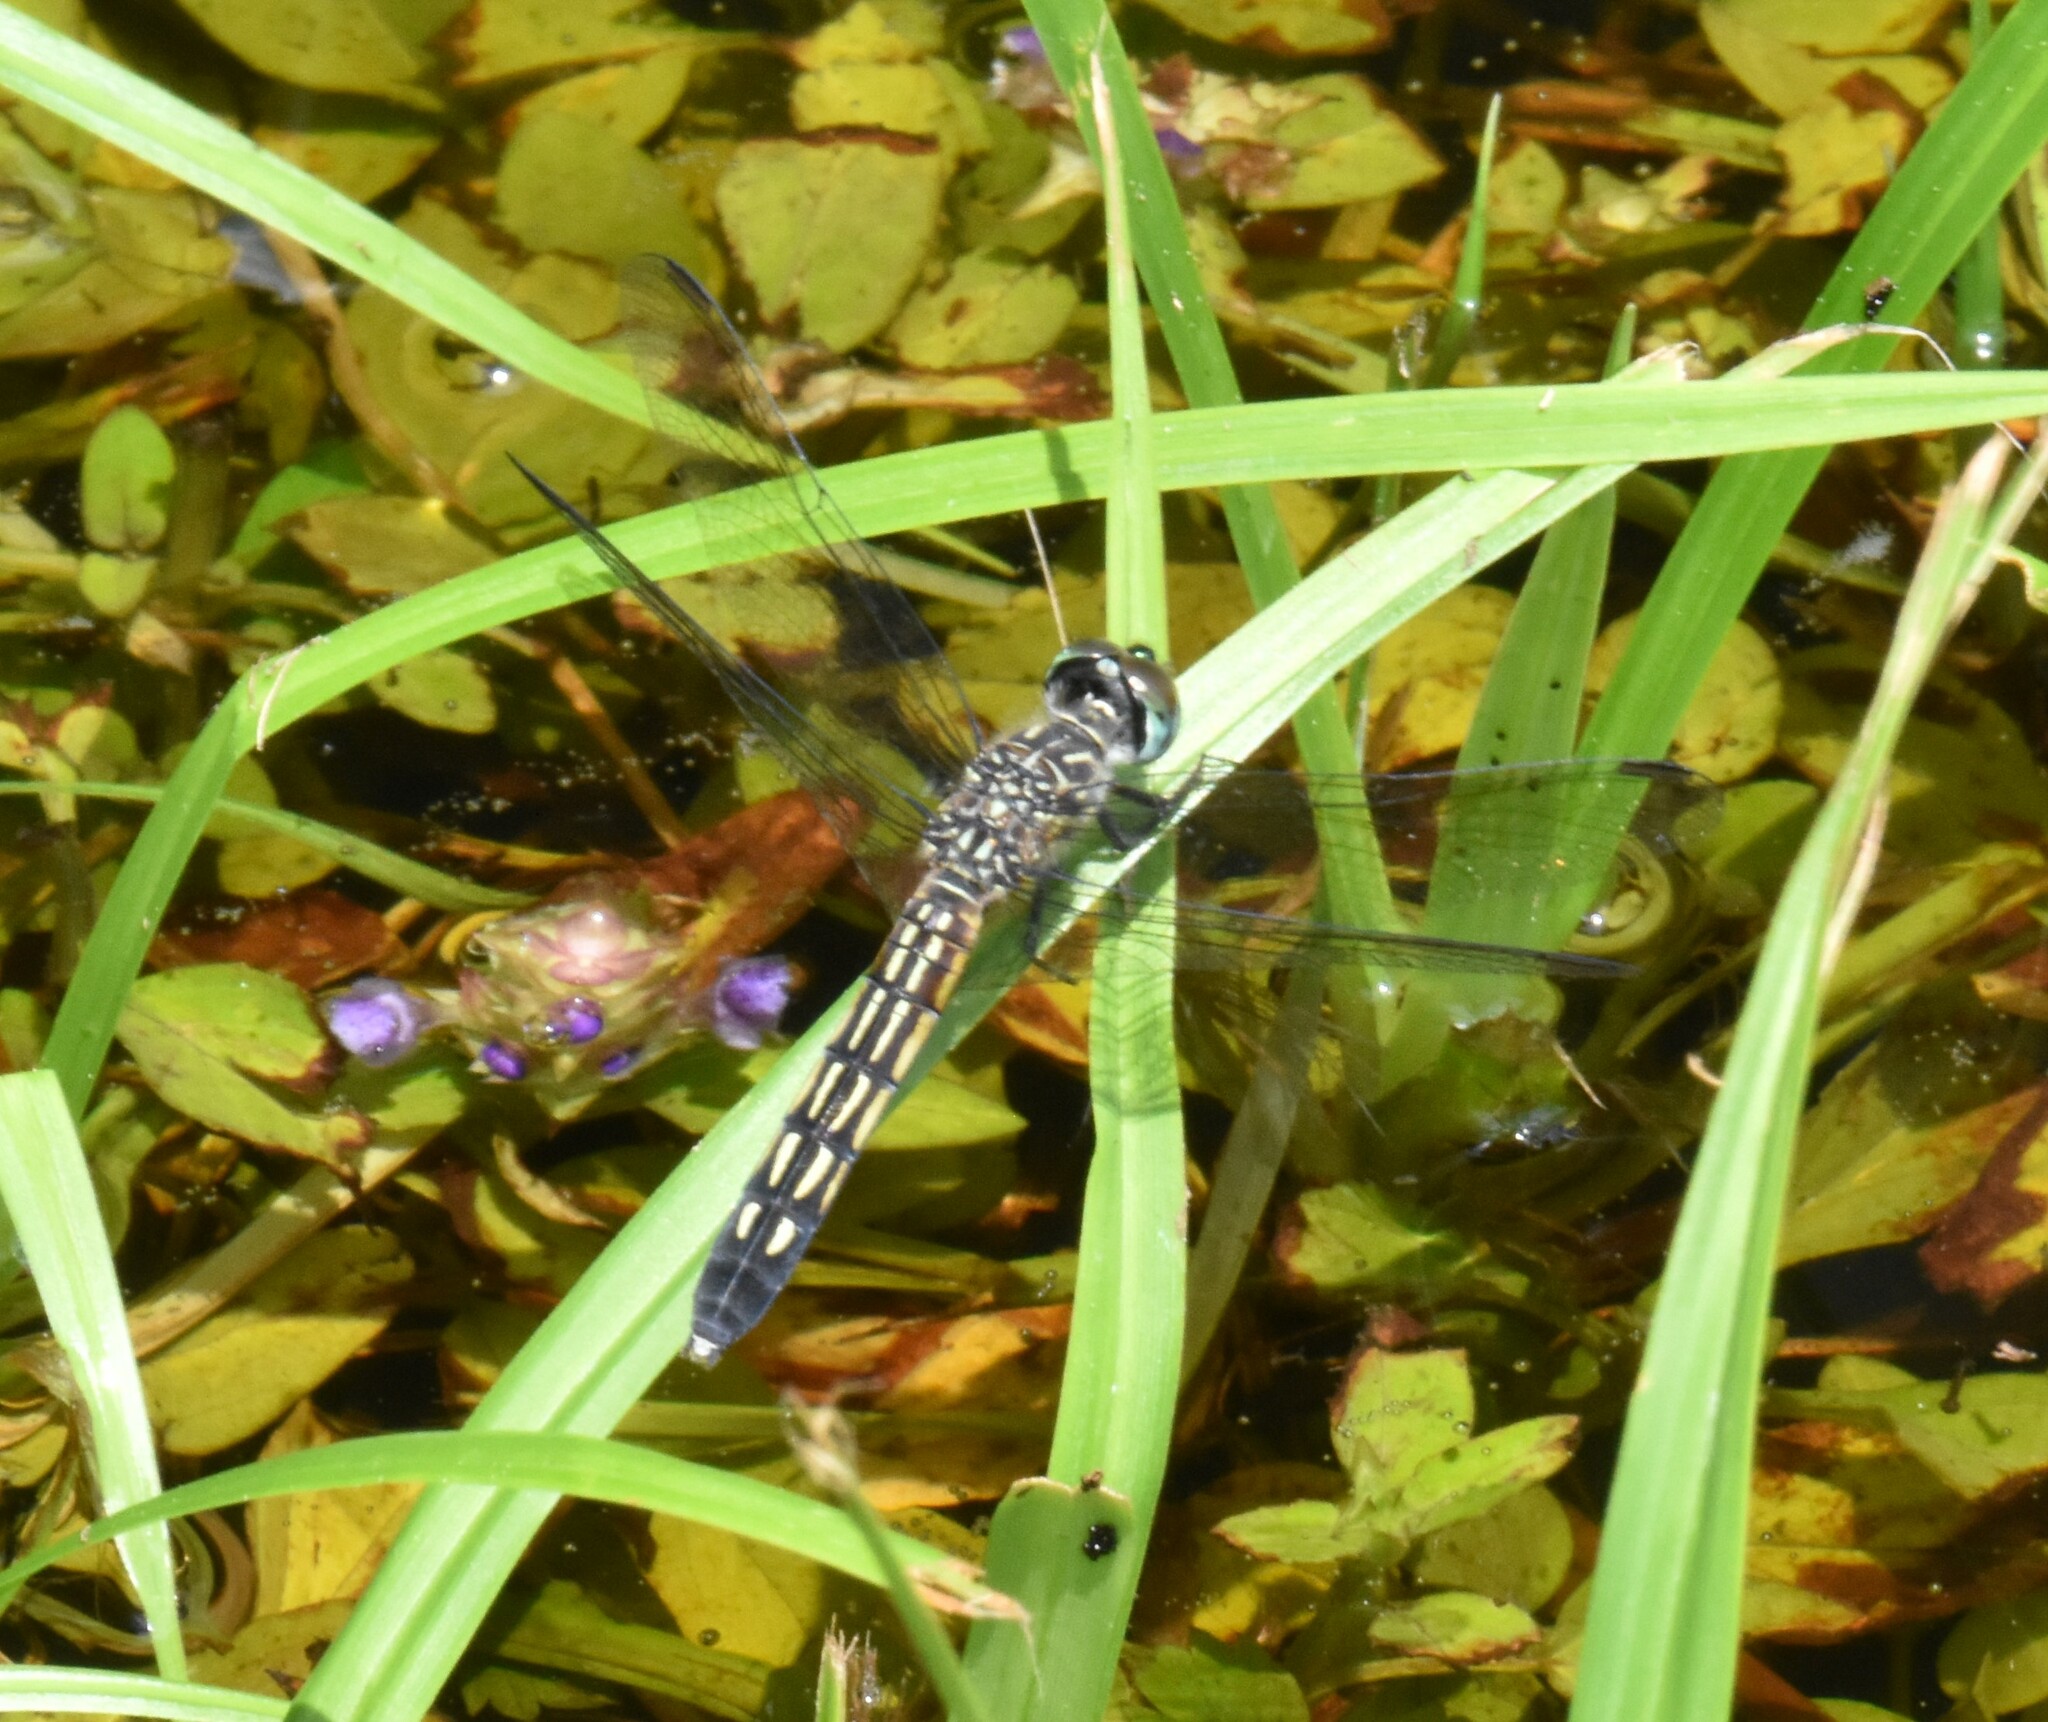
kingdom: Animalia
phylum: Arthropoda
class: Insecta
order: Odonata
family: Libellulidae
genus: Pachydiplax
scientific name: Pachydiplax longipennis
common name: Blue dasher
